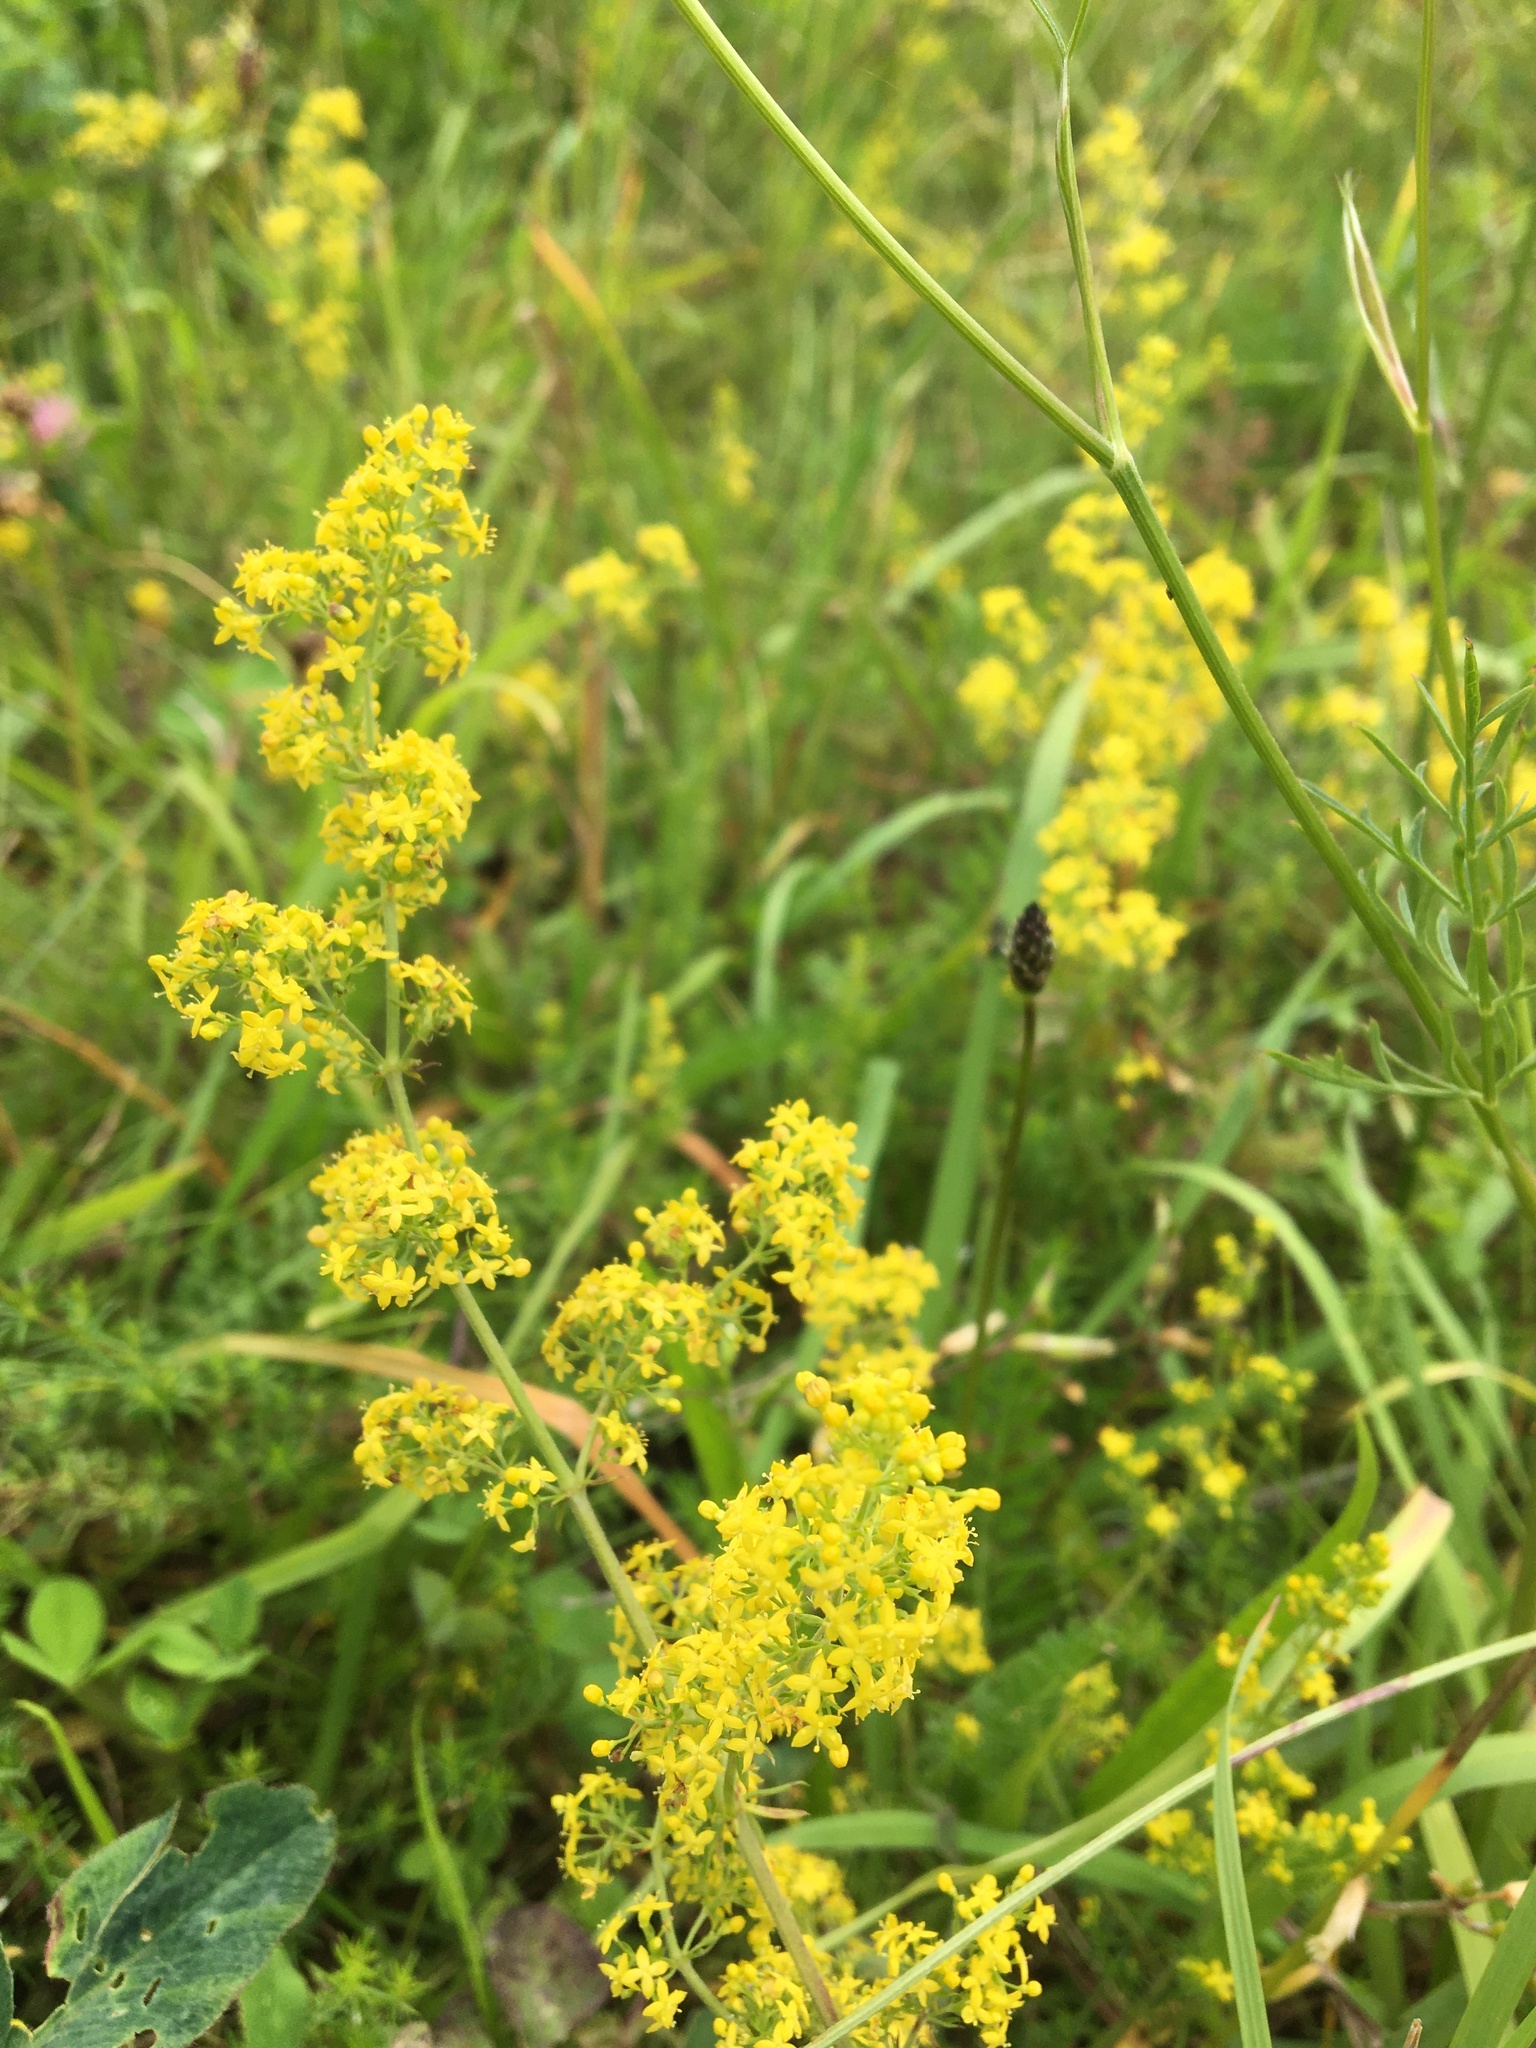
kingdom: Plantae
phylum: Tracheophyta
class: Magnoliopsida
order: Gentianales
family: Rubiaceae
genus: Galium
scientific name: Galium verum
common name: Lady's bedstraw
